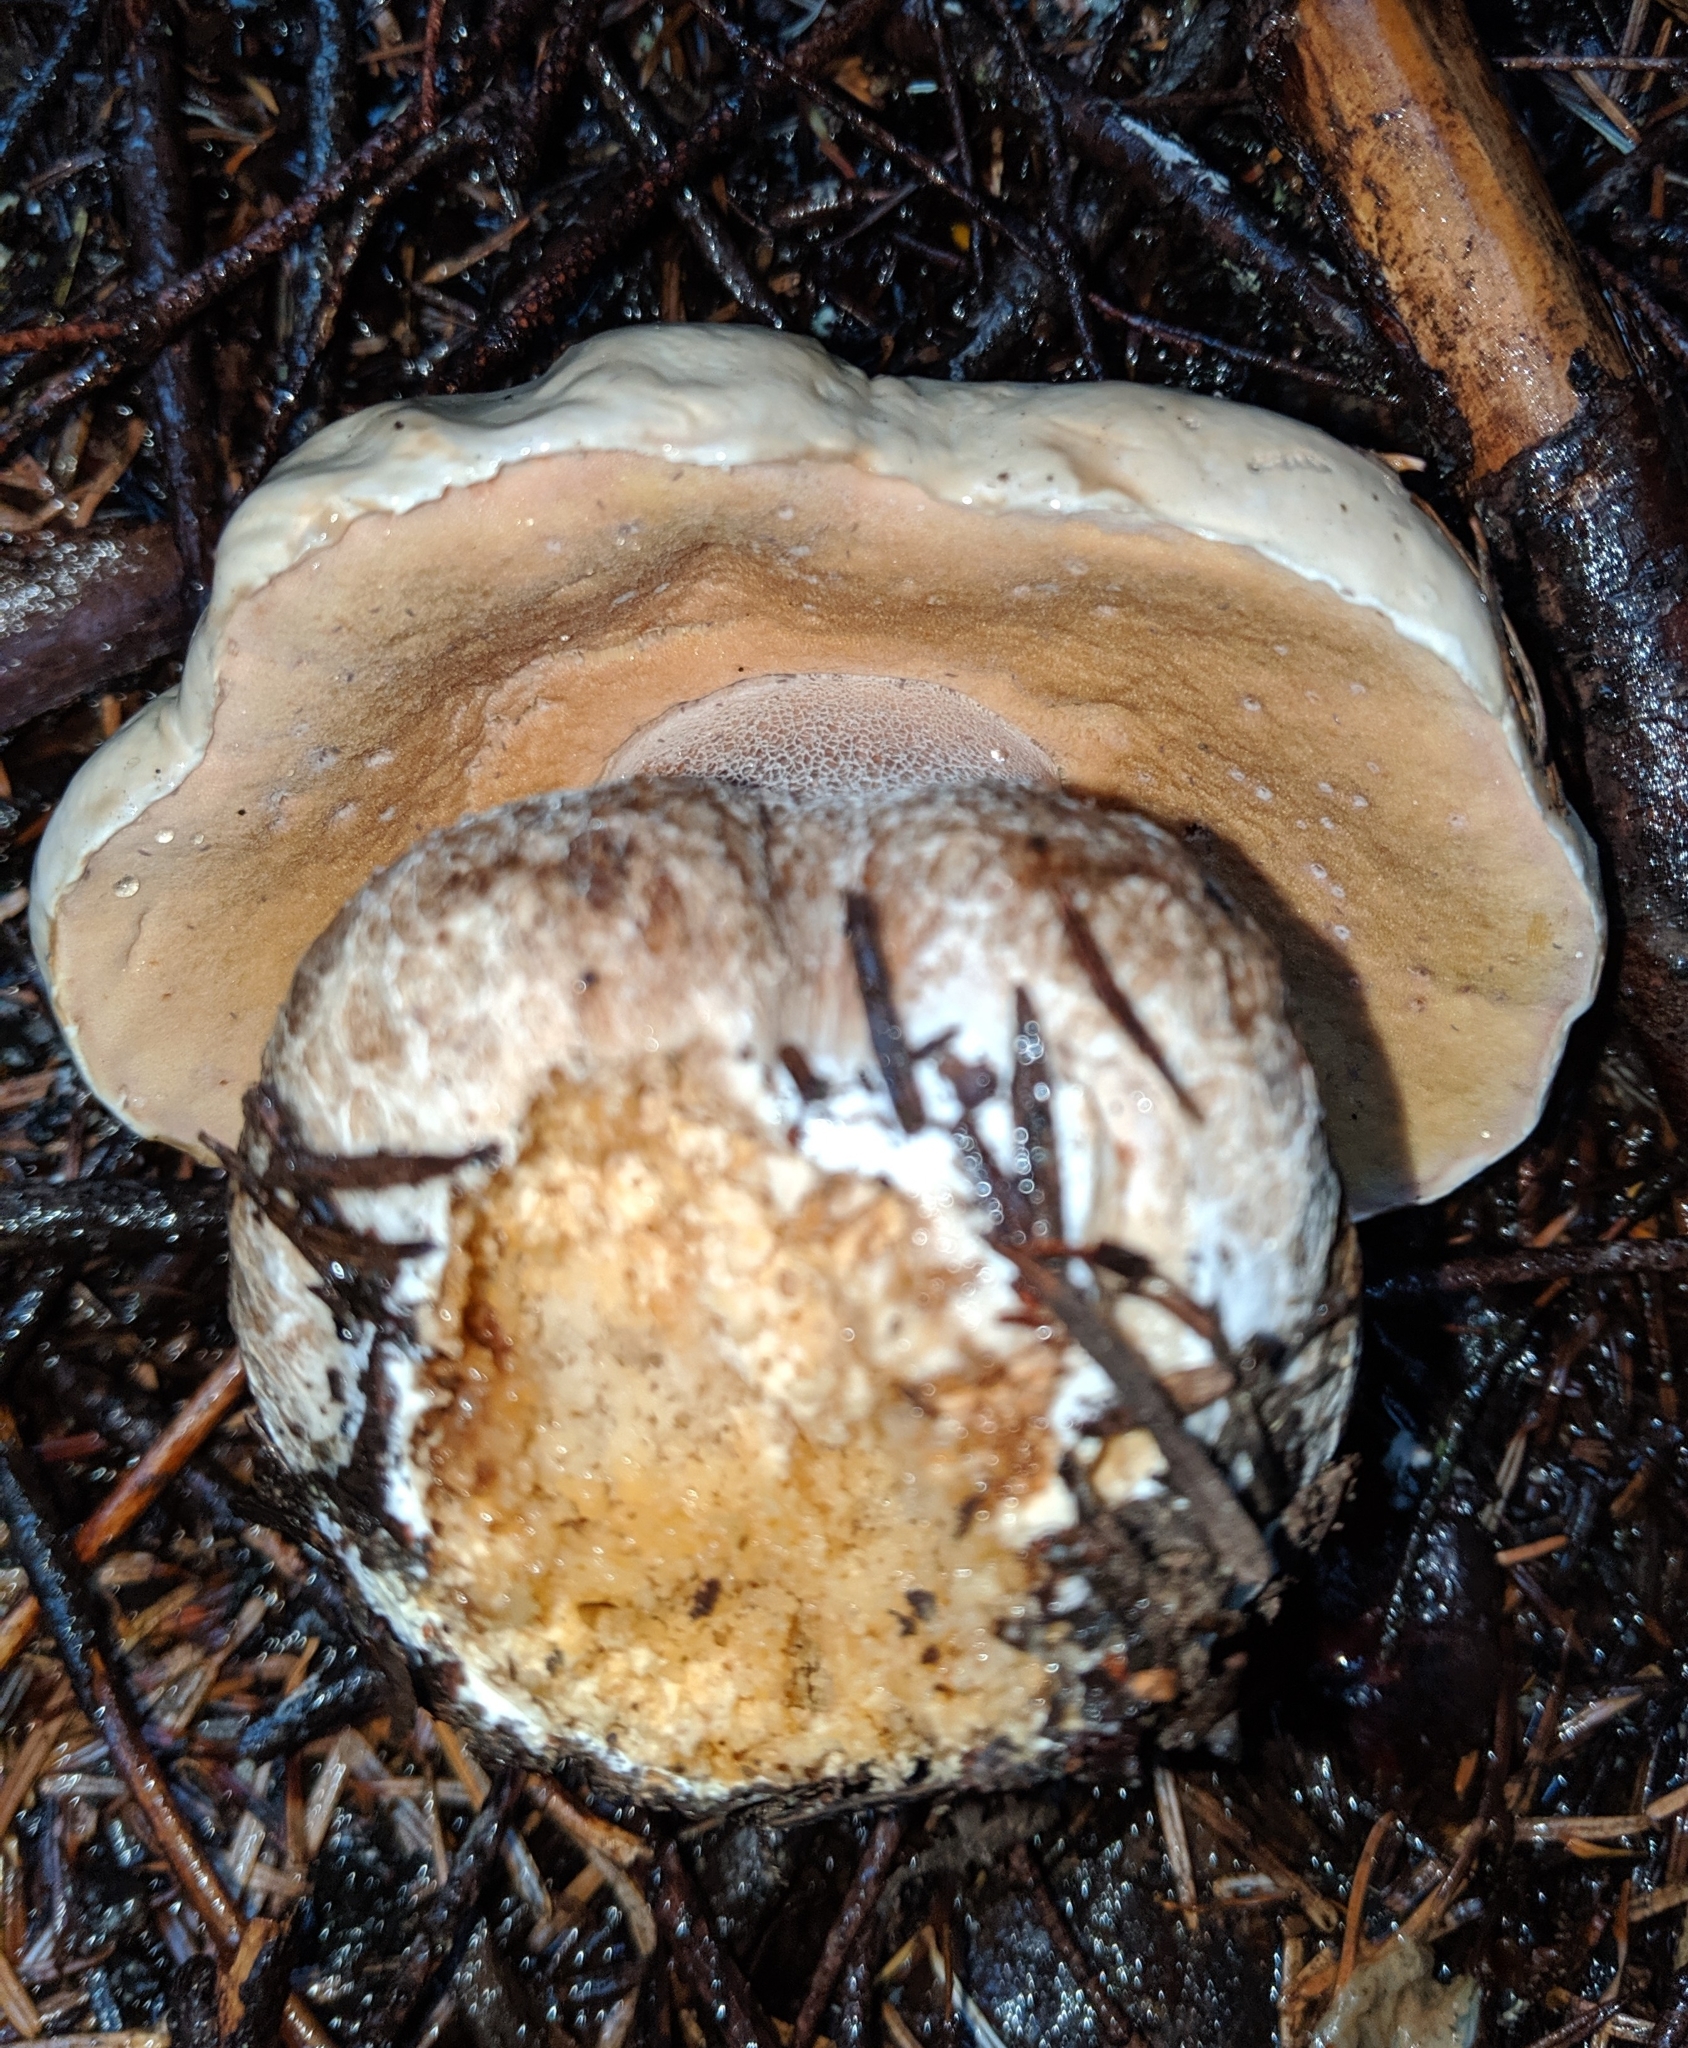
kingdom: Fungi
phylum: Basidiomycota
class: Agaricomycetes
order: Boletales
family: Boletaceae
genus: Boletus
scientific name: Boletus edulis
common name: Cep
